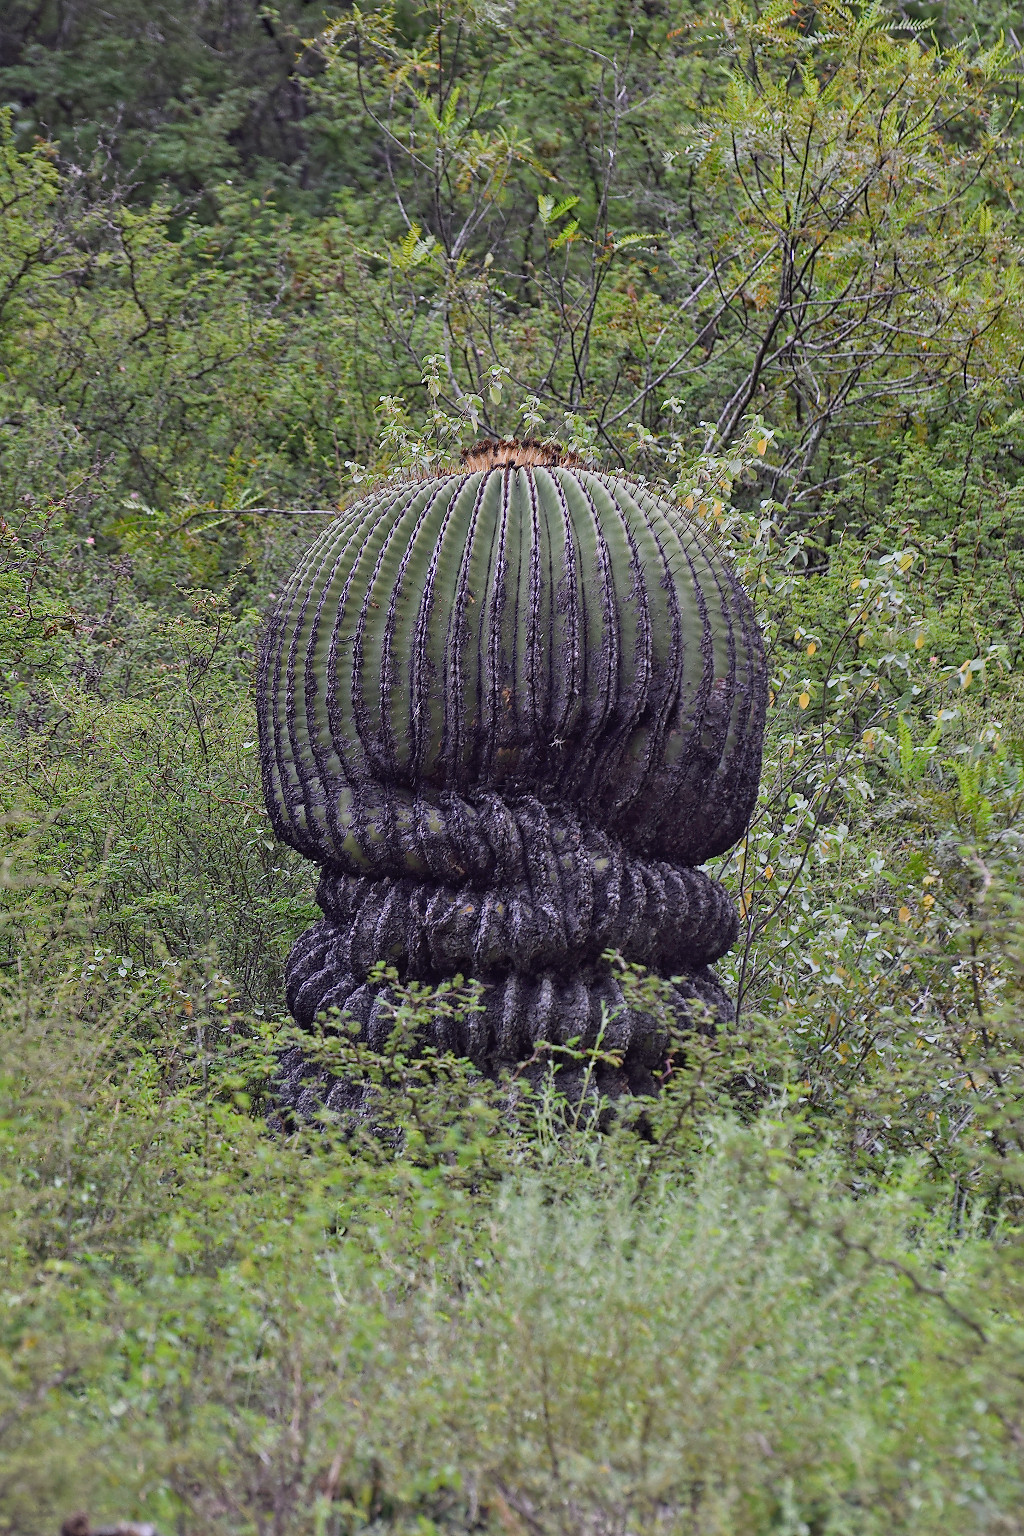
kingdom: Plantae
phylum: Tracheophyta
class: Magnoliopsida
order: Caryophyllales
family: Cactaceae
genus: Echinocactus
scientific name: Echinocactus platyacanthus
